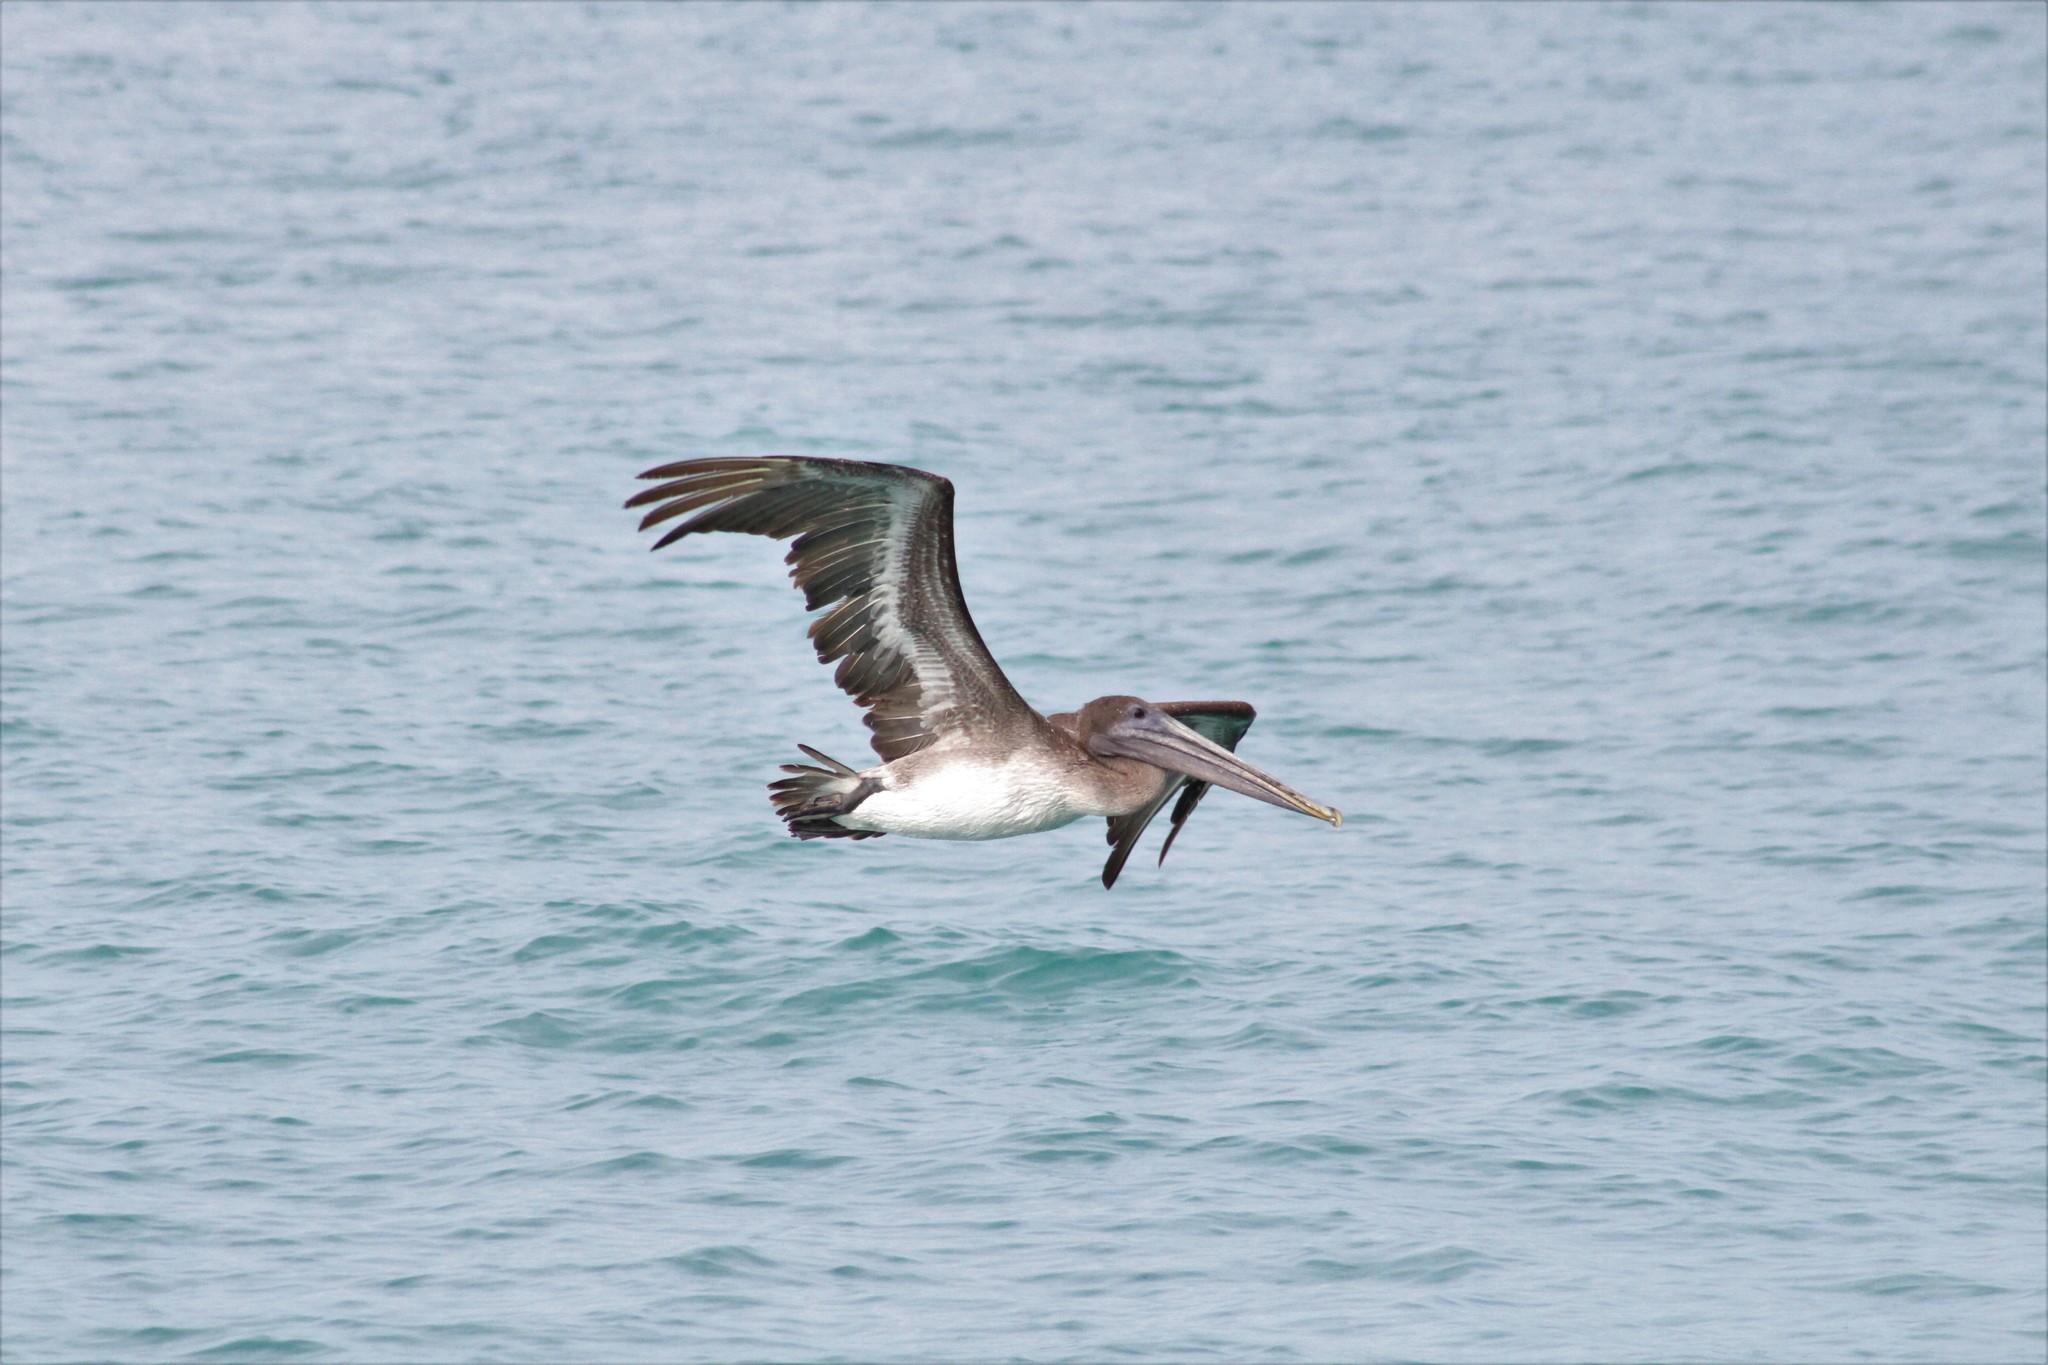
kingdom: Animalia
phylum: Chordata
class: Aves
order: Pelecaniformes
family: Pelecanidae
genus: Pelecanus
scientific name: Pelecanus occidentalis
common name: Brown pelican
